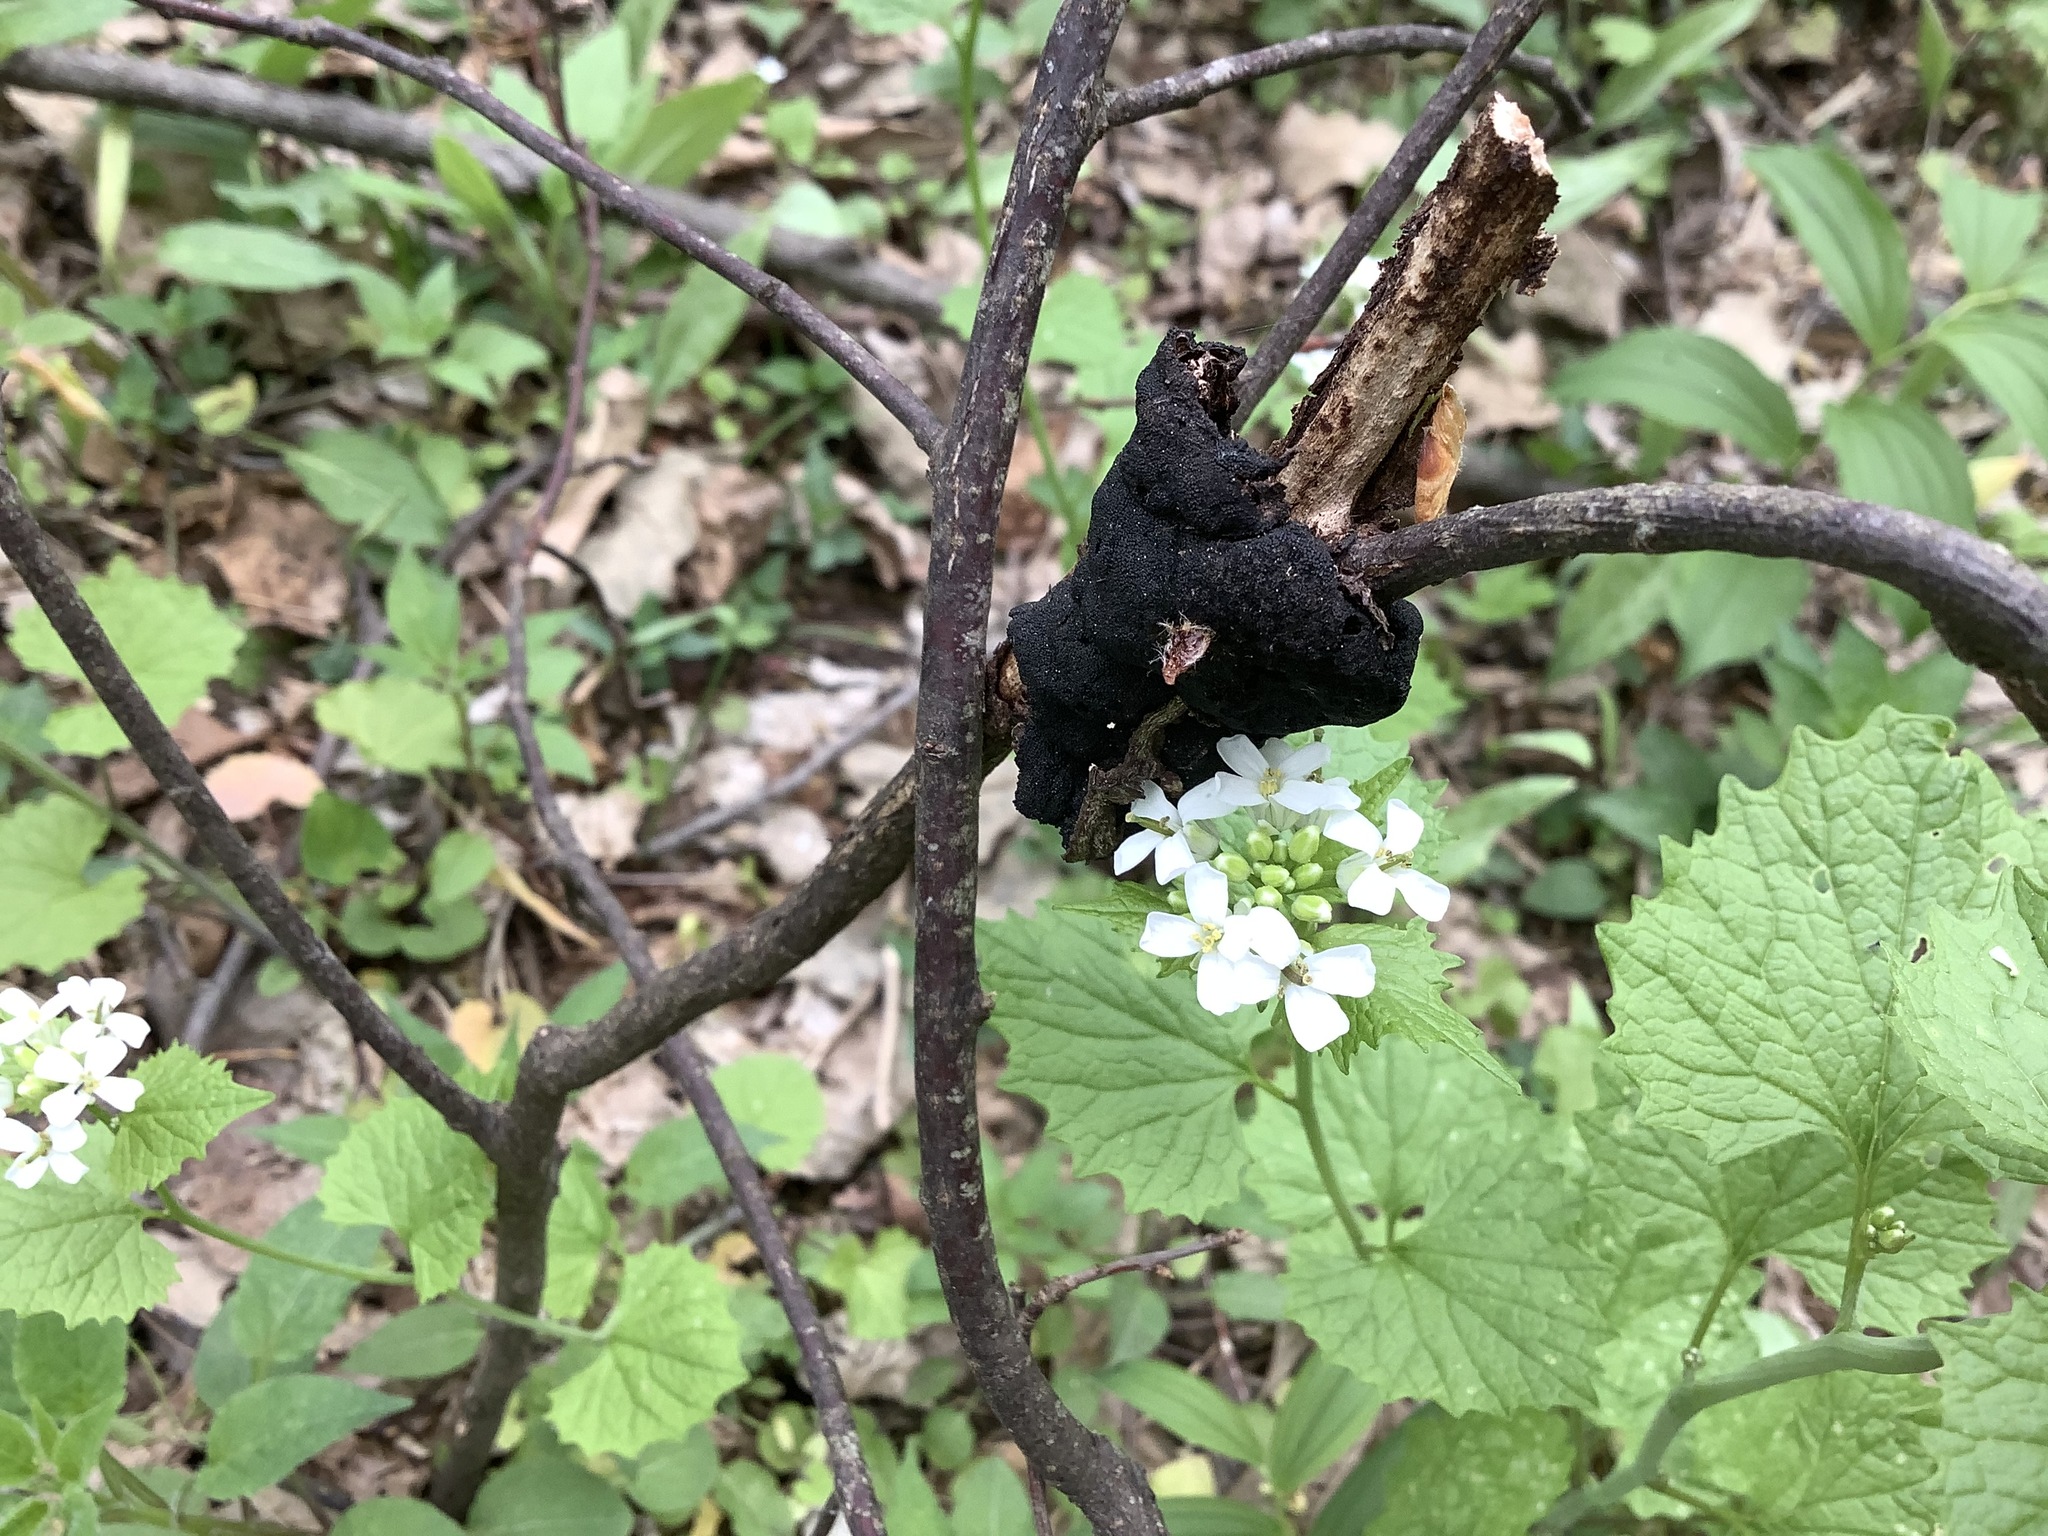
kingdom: Fungi
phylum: Ascomycota
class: Dothideomycetes
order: Venturiales
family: Venturiaceae
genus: Apiosporina
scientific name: Apiosporina morbosa
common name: Black knot
